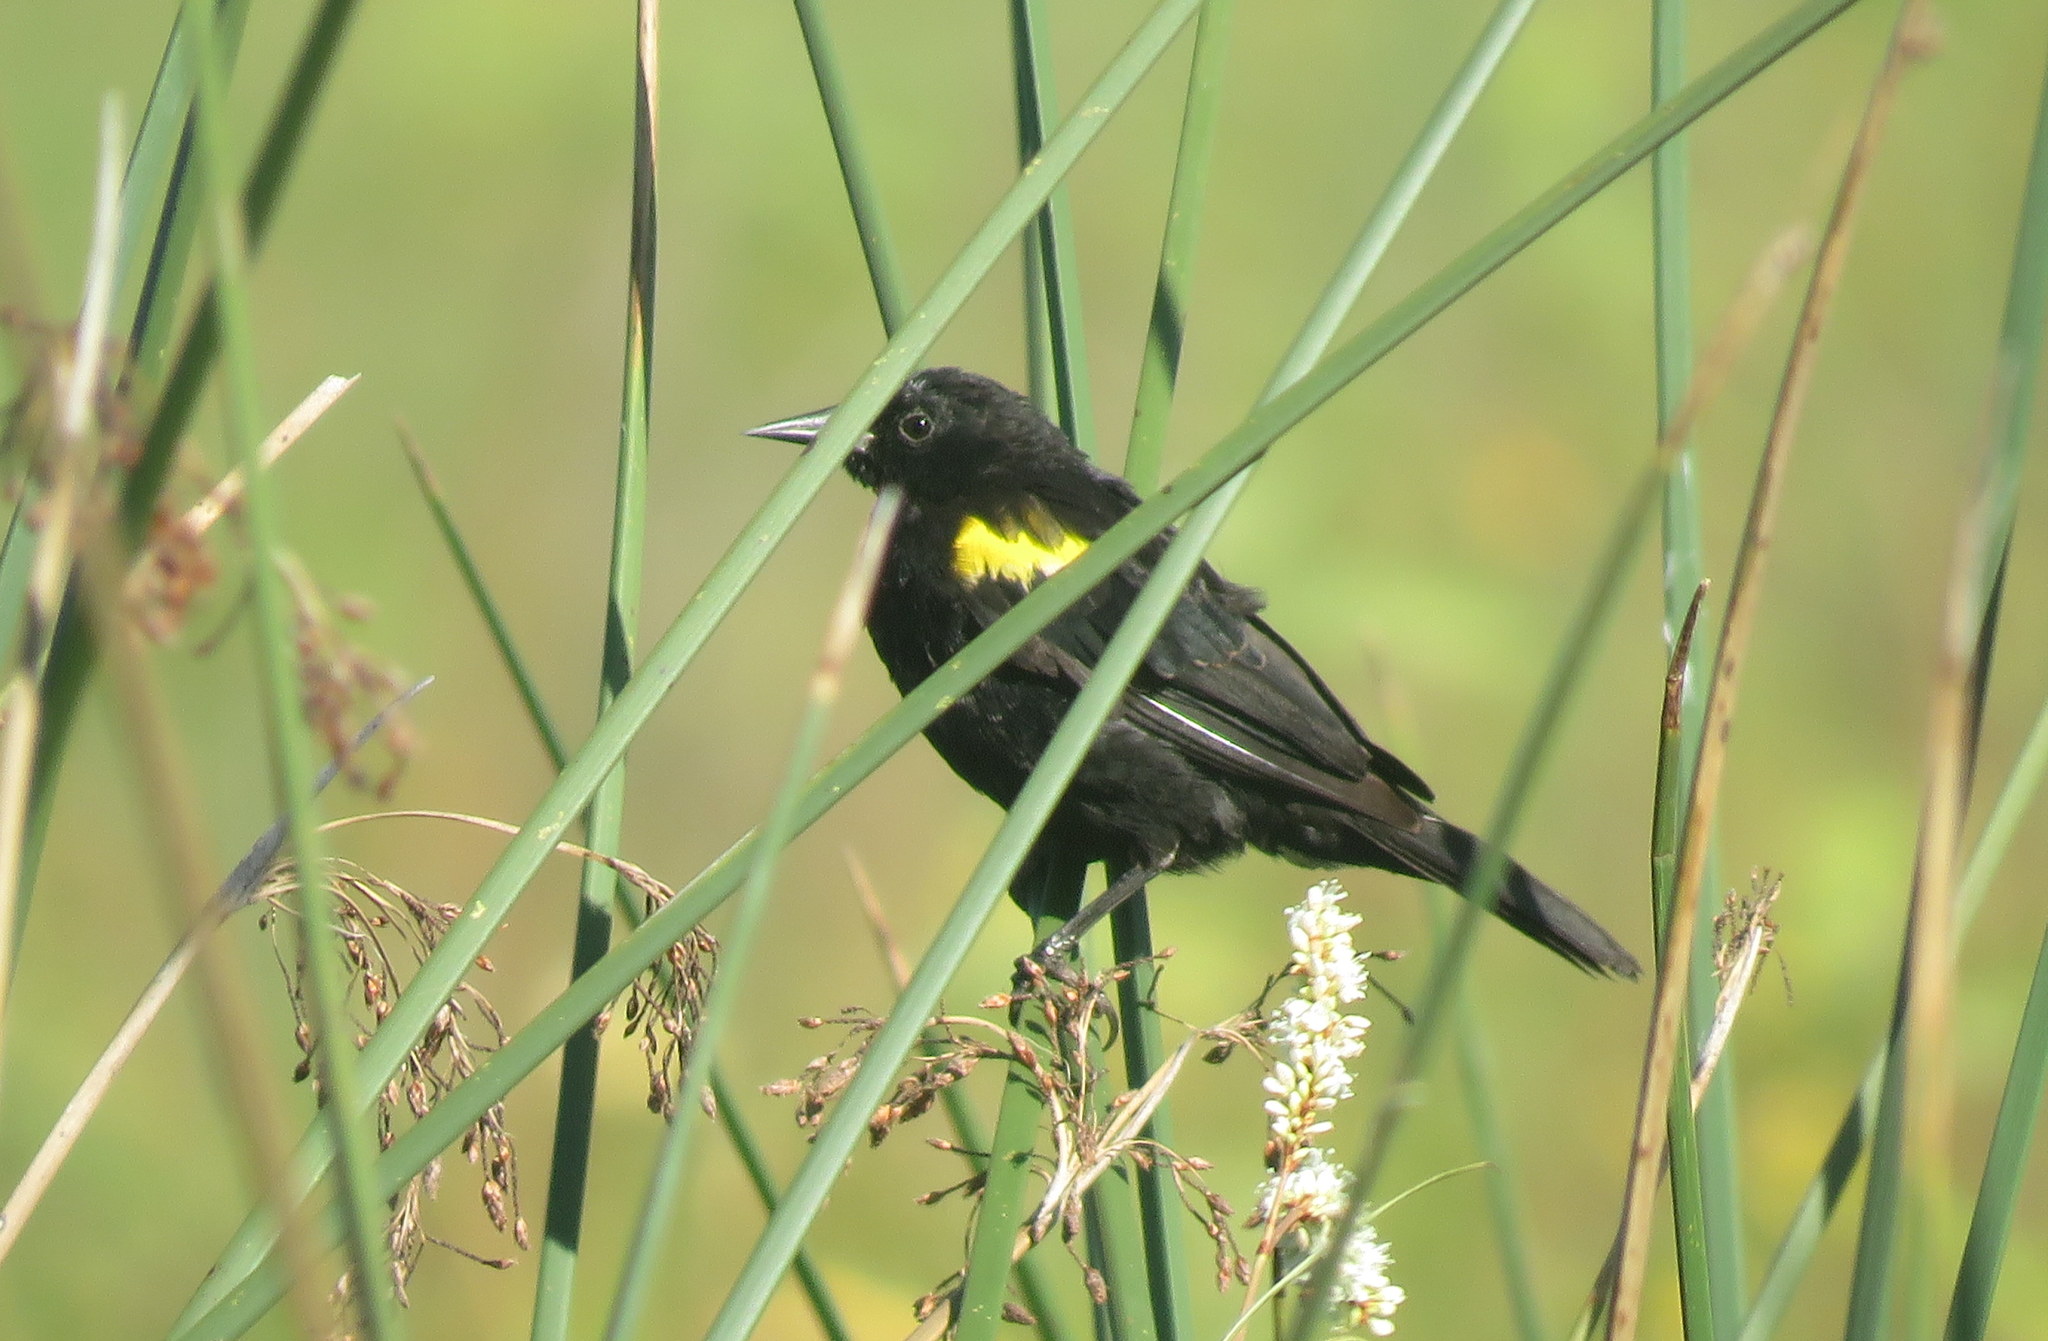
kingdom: Animalia
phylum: Chordata
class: Aves
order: Passeriformes
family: Icteridae
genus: Agelasticus
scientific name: Agelasticus thilius
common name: Yellow-winged blackbird
